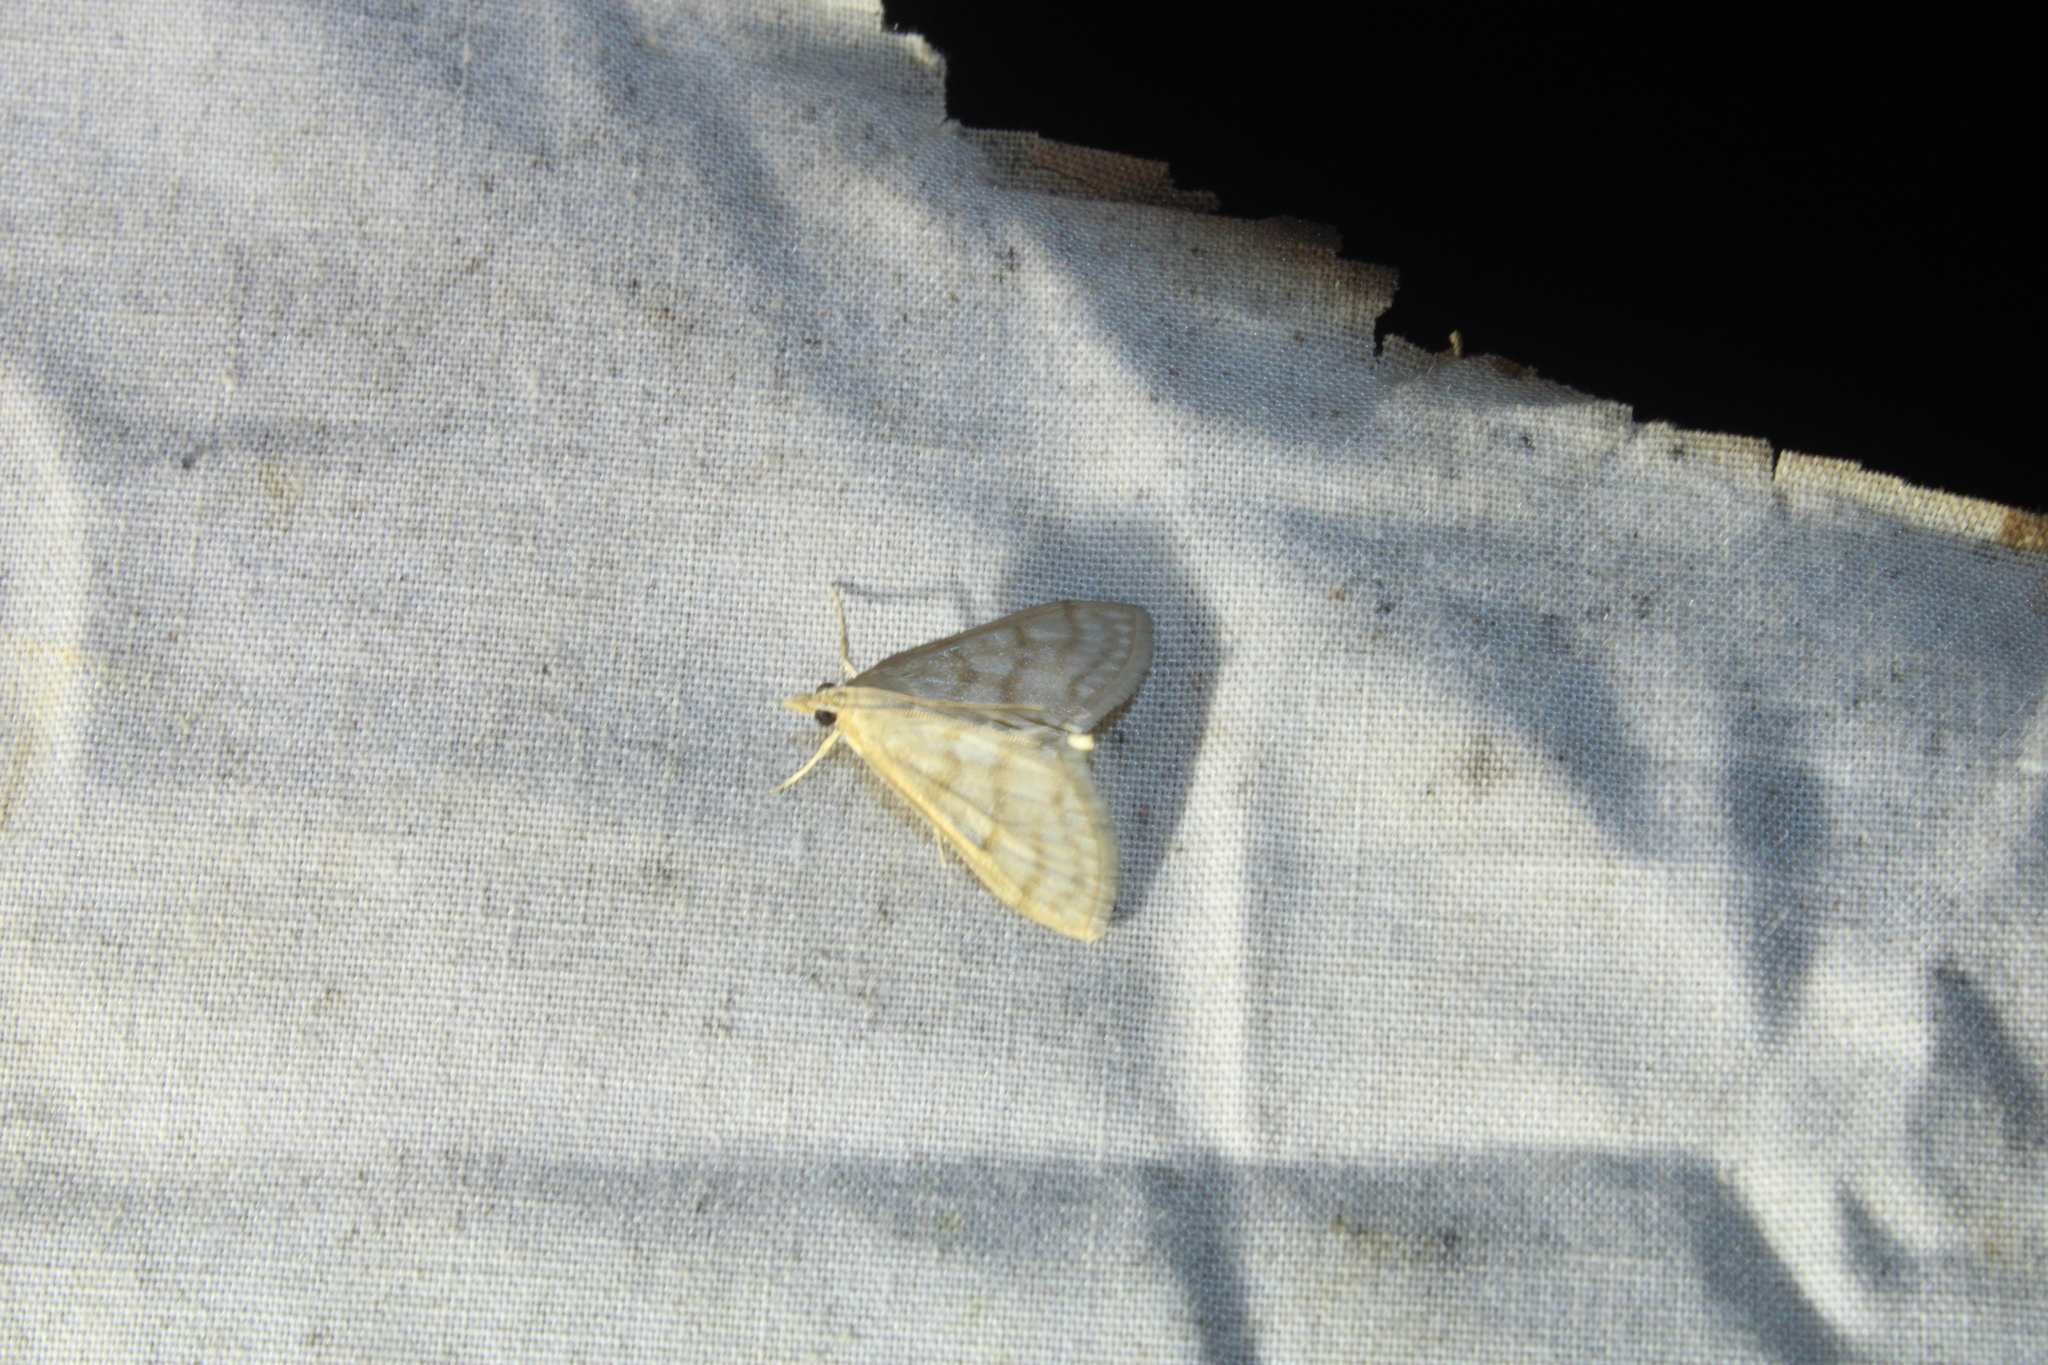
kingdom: Animalia
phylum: Arthropoda
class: Insecta
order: Lepidoptera
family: Crambidae
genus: Paracorsia
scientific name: Paracorsia repandalis
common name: Mullein moth
